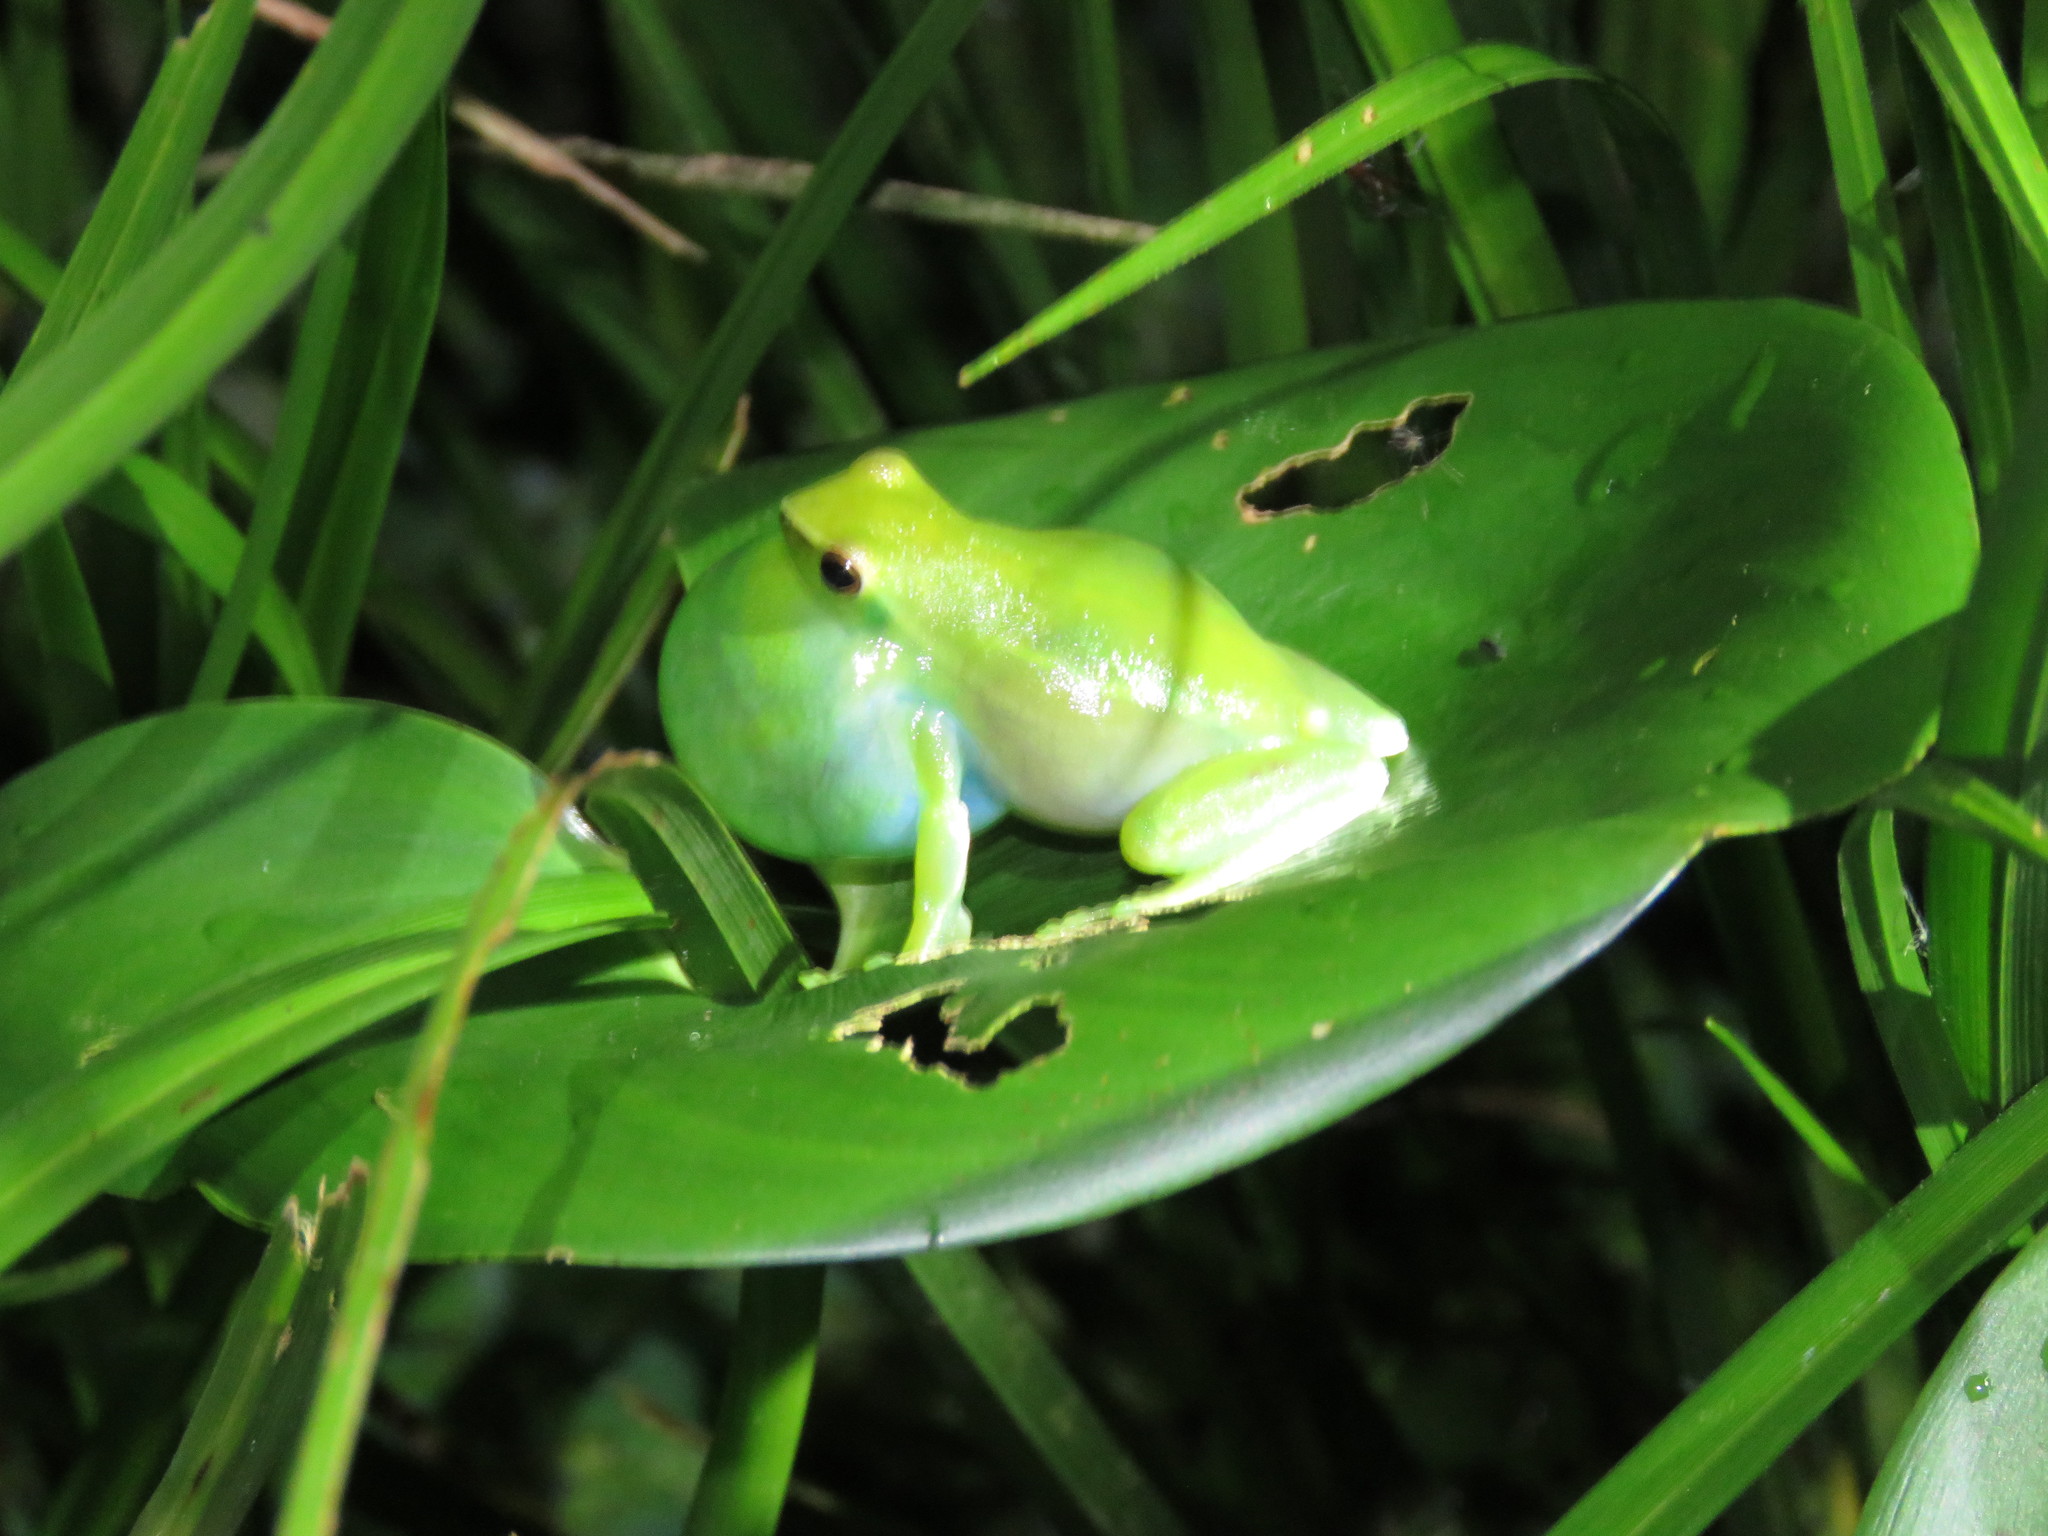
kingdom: Animalia
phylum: Chordata
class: Amphibia
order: Anura
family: Hylidae
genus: Sphaenorhynchus
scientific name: Sphaenorhynchus lacteus
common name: Orinoco lime treefrog
